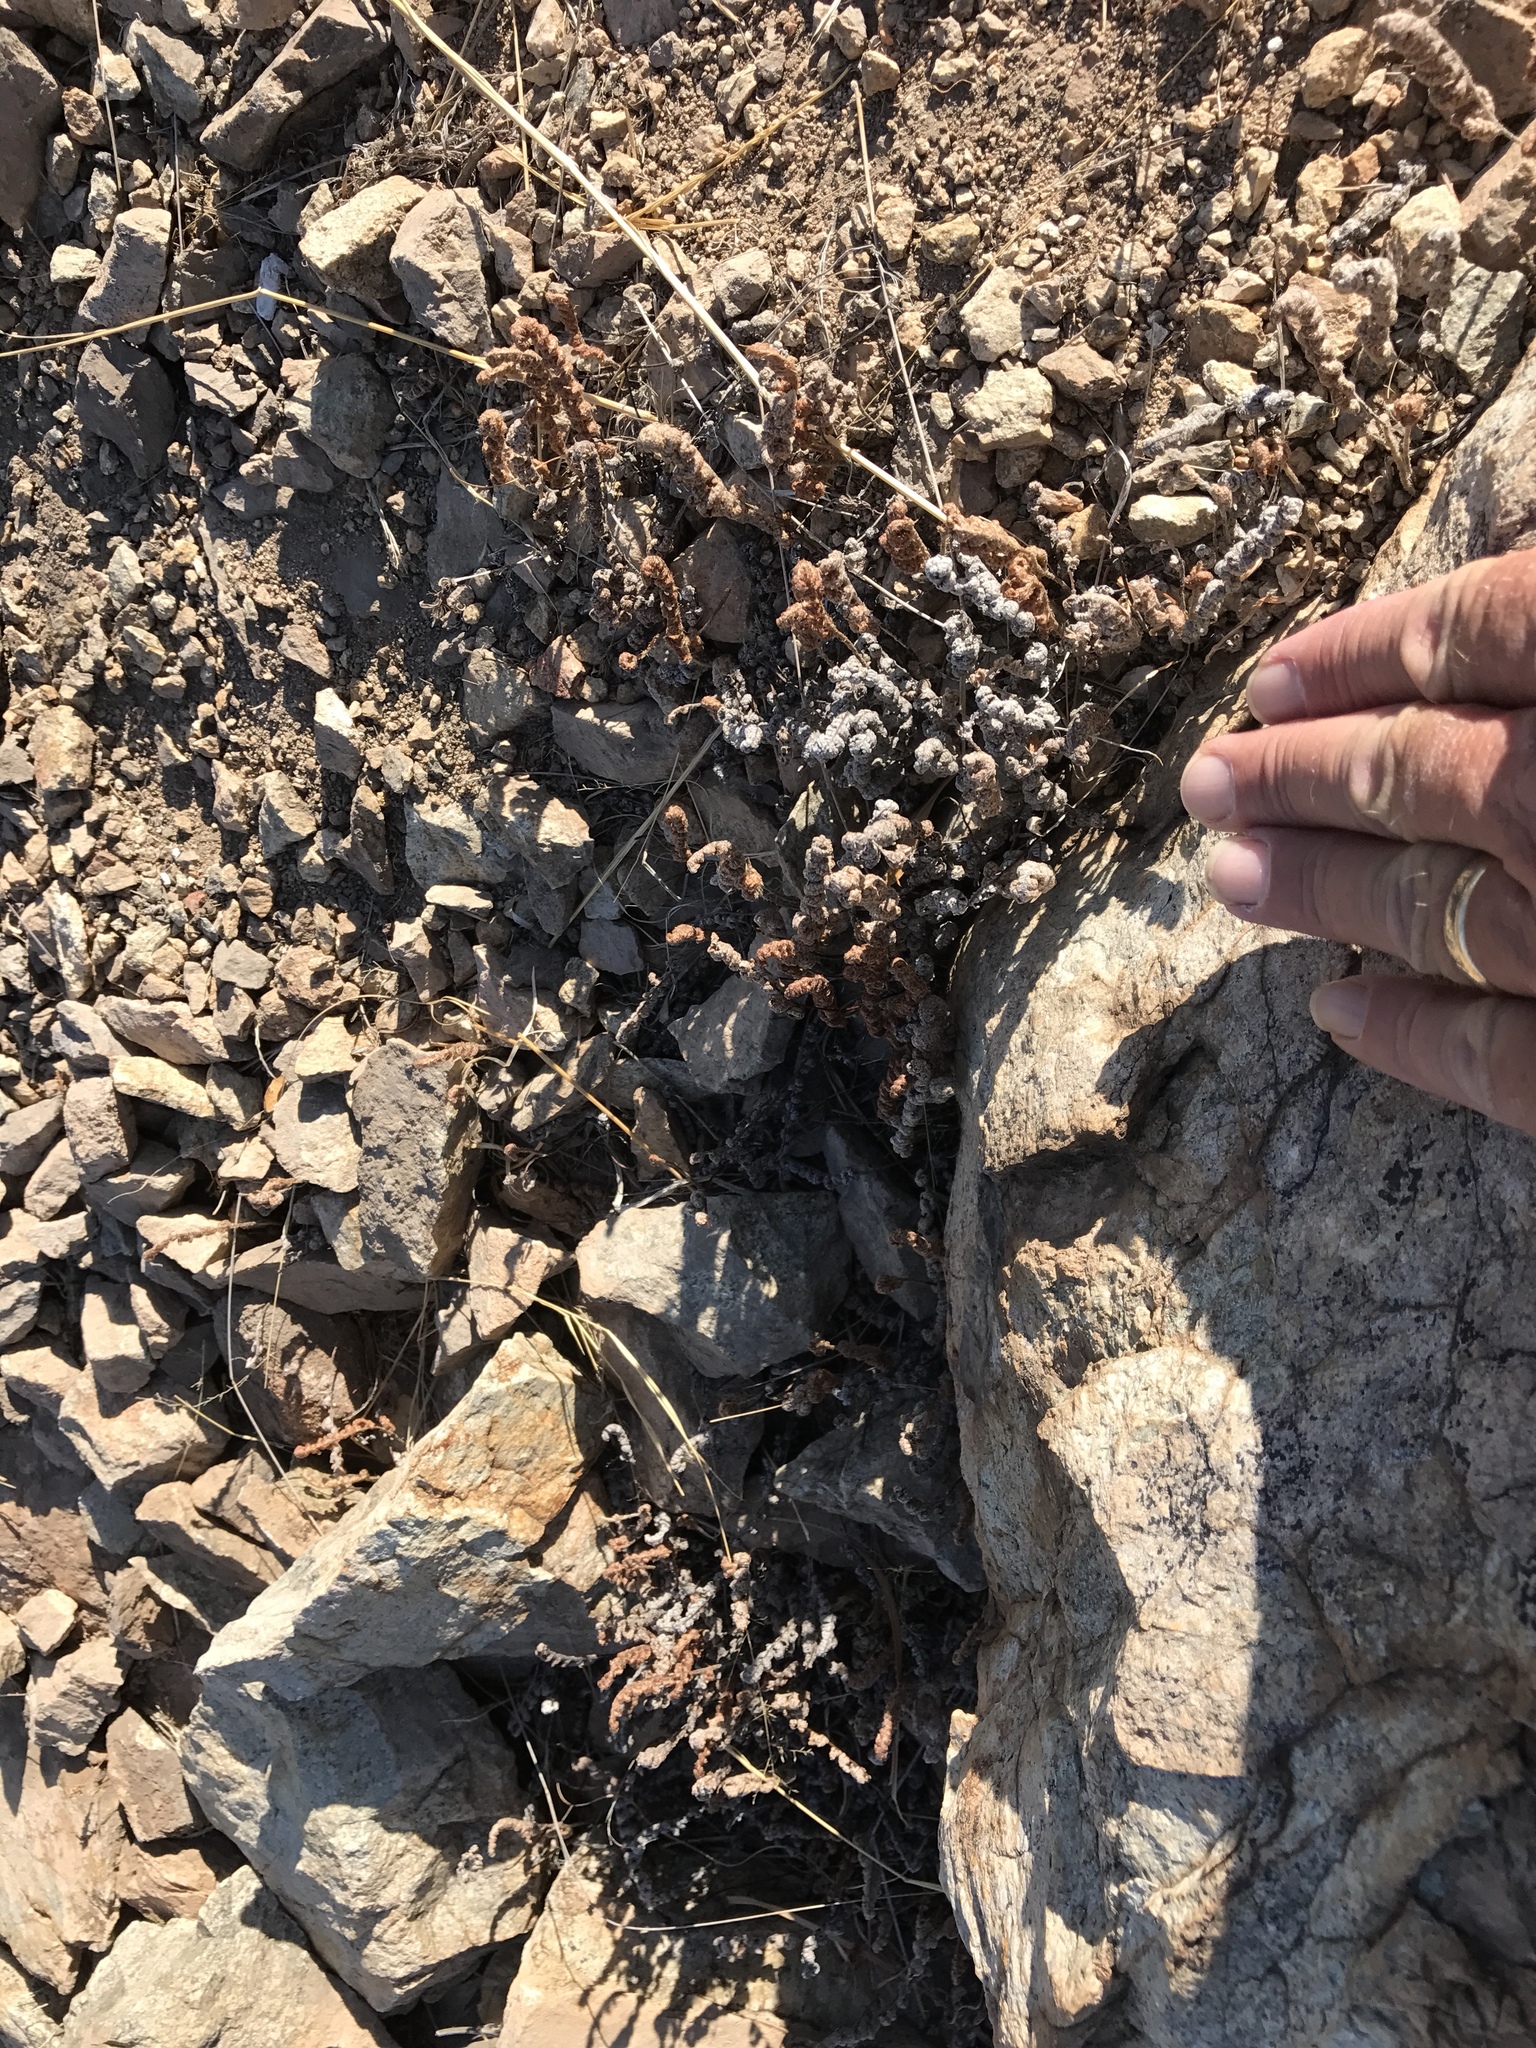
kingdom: Plantae
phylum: Tracheophyta
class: Polypodiopsida
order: Polypodiales
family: Pteridaceae
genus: Myriopteris
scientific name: Myriopteris lindheimeri
